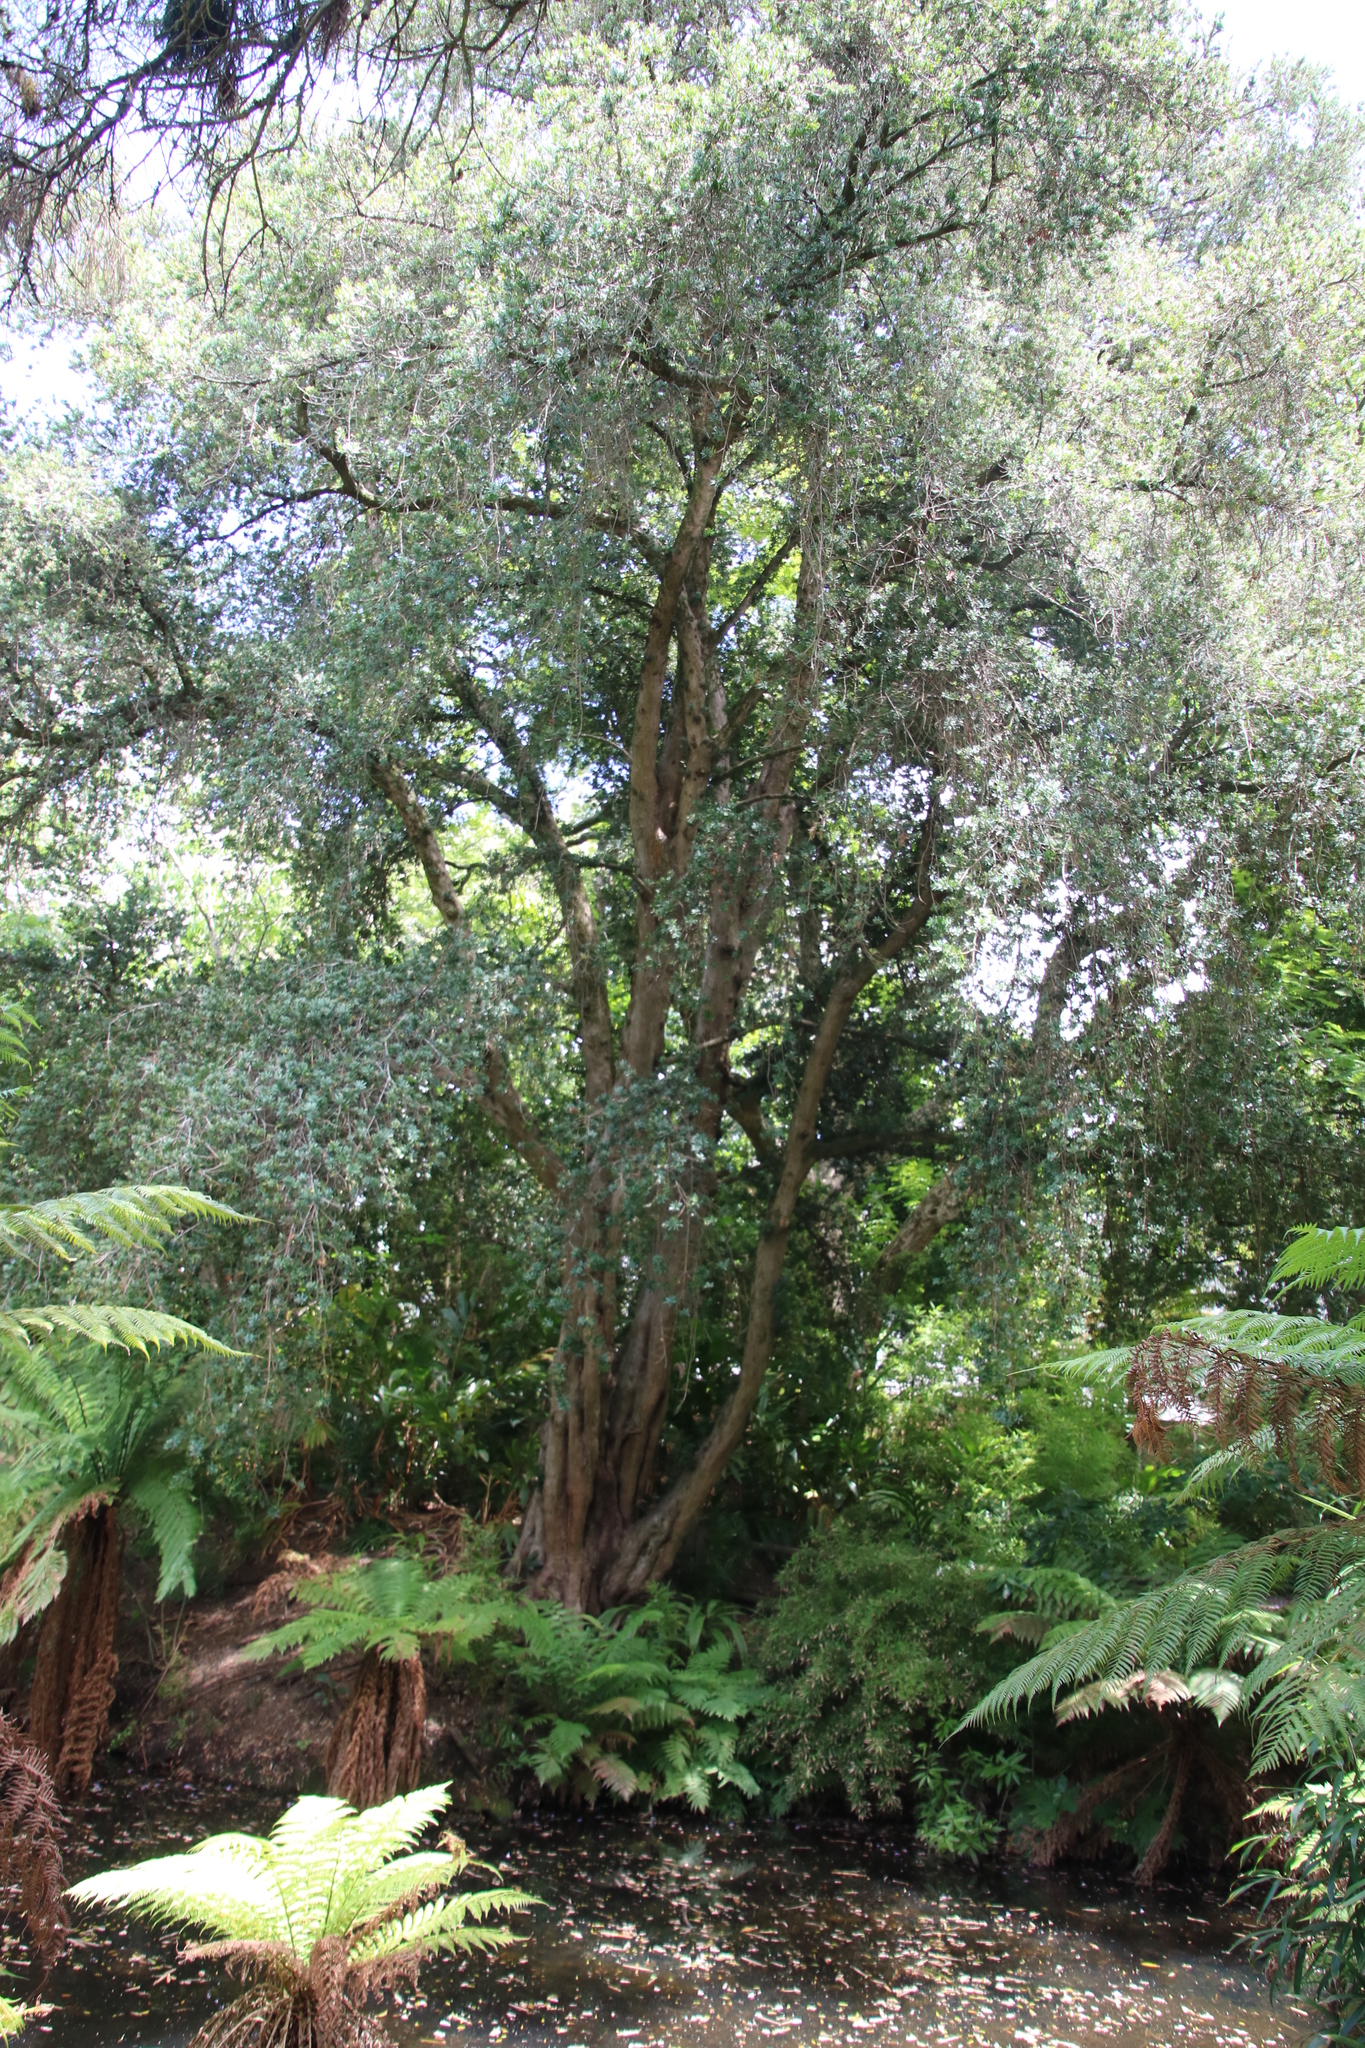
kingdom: Plantae
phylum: Tracheophyta
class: Pinopsida
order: Pinales
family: Podocarpaceae
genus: Podocarpus
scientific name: Podocarpus latifolius
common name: True yellowwood
